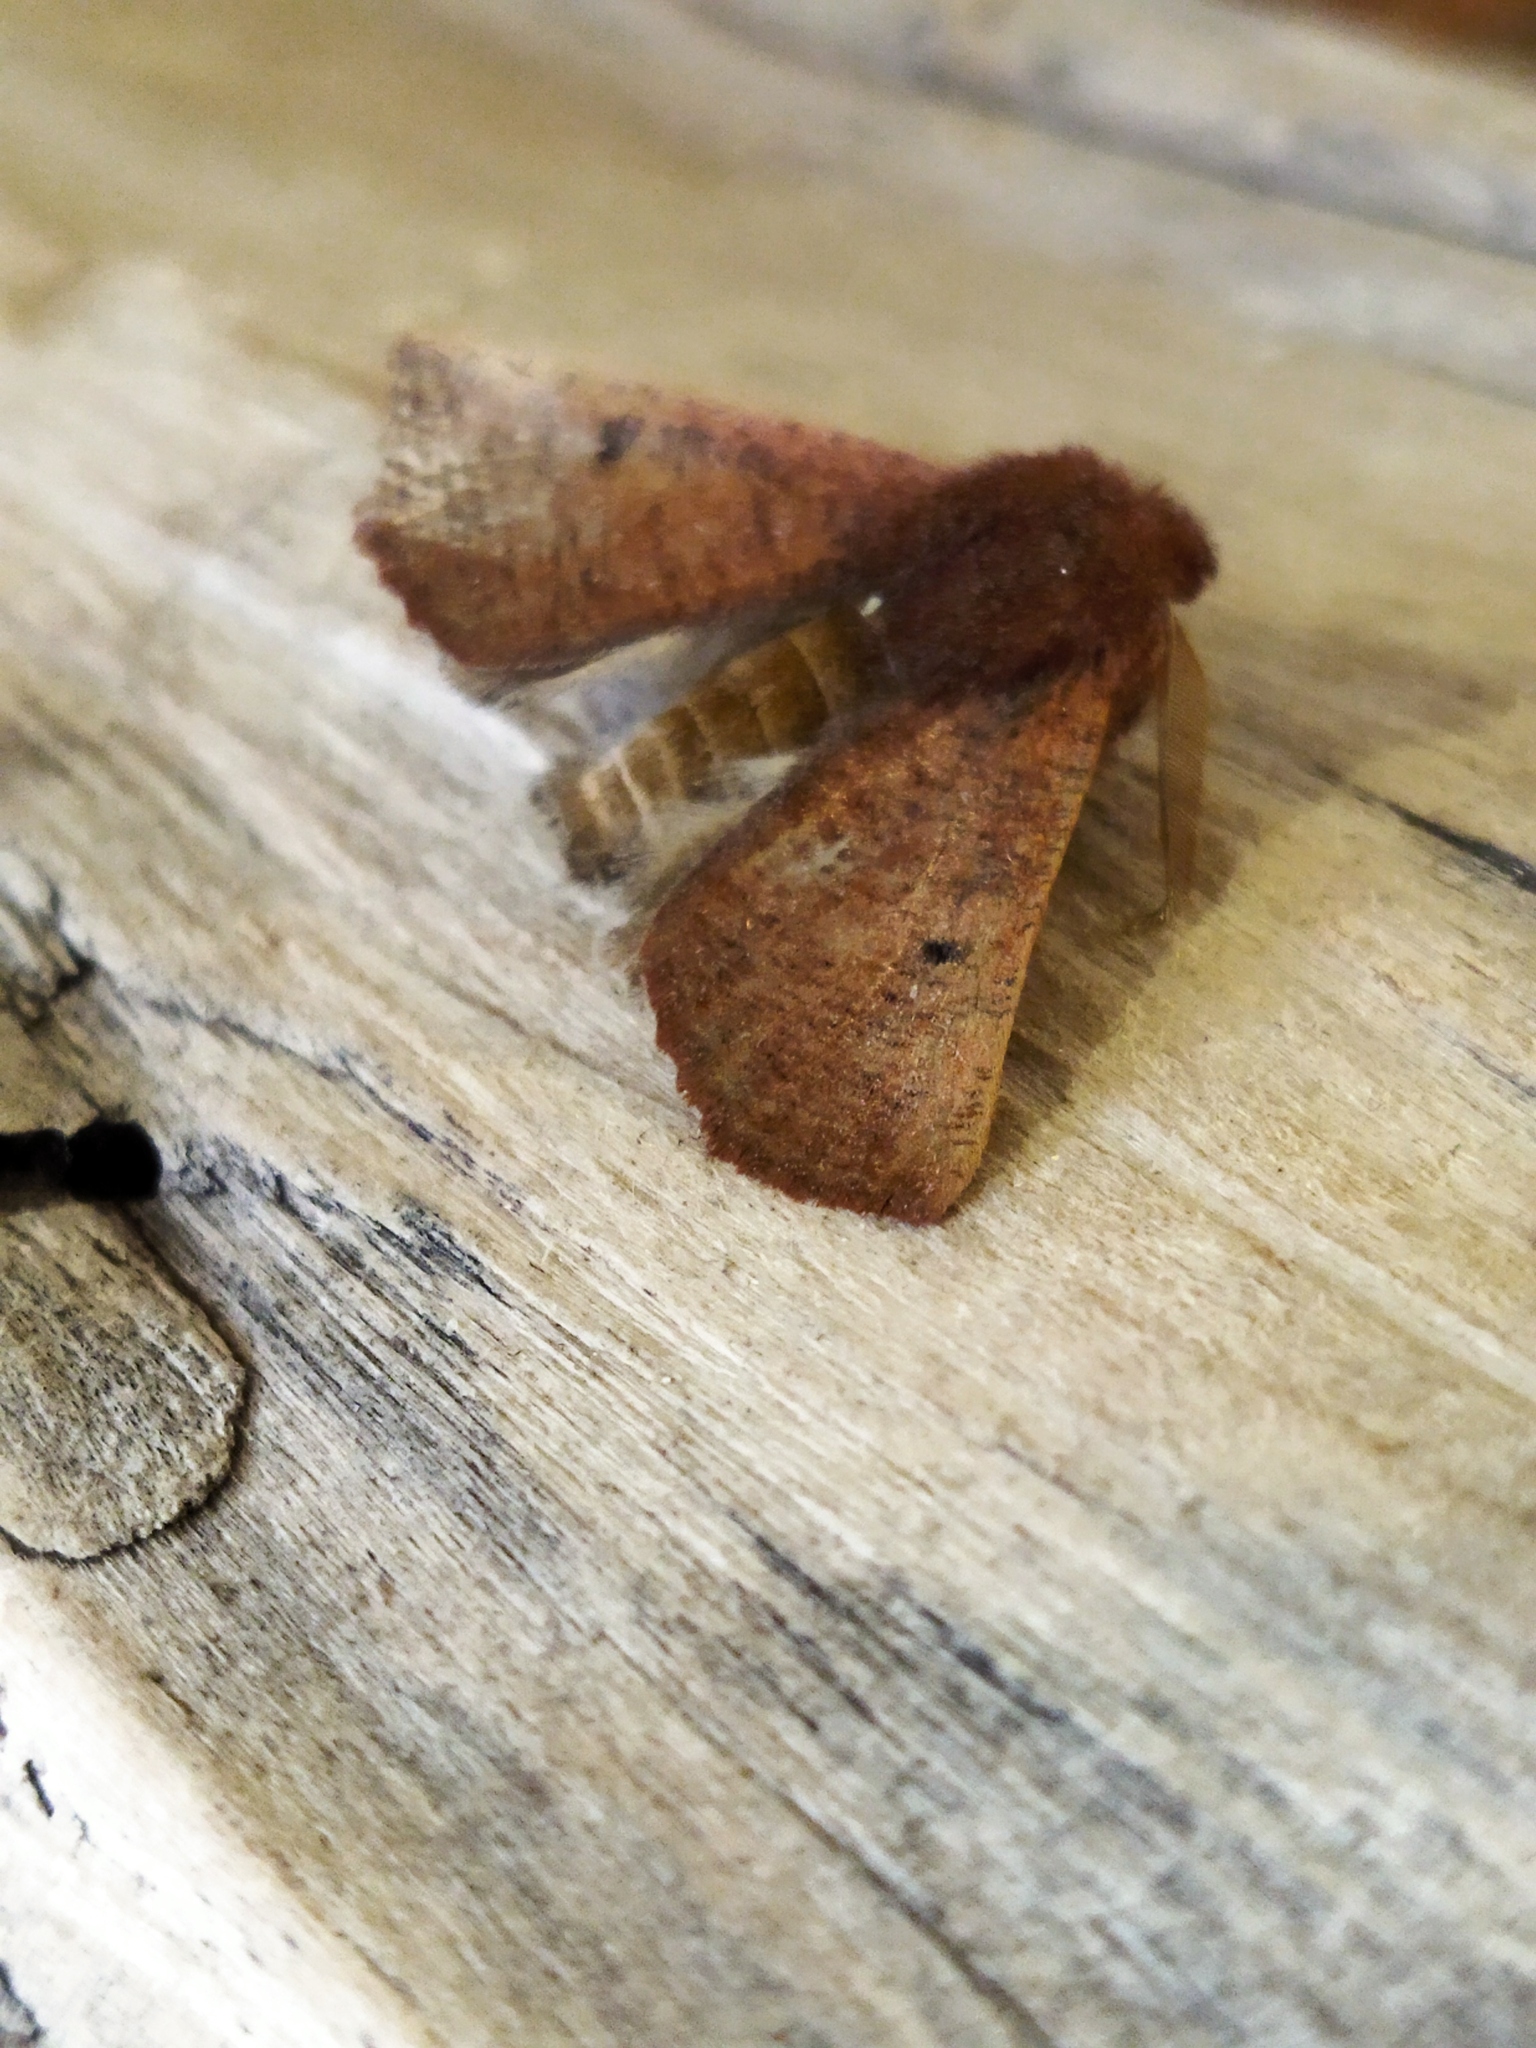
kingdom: Animalia
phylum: Arthropoda
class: Insecta
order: Lepidoptera
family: Geometridae
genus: Dasycorsa
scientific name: Dasycorsa modesta
